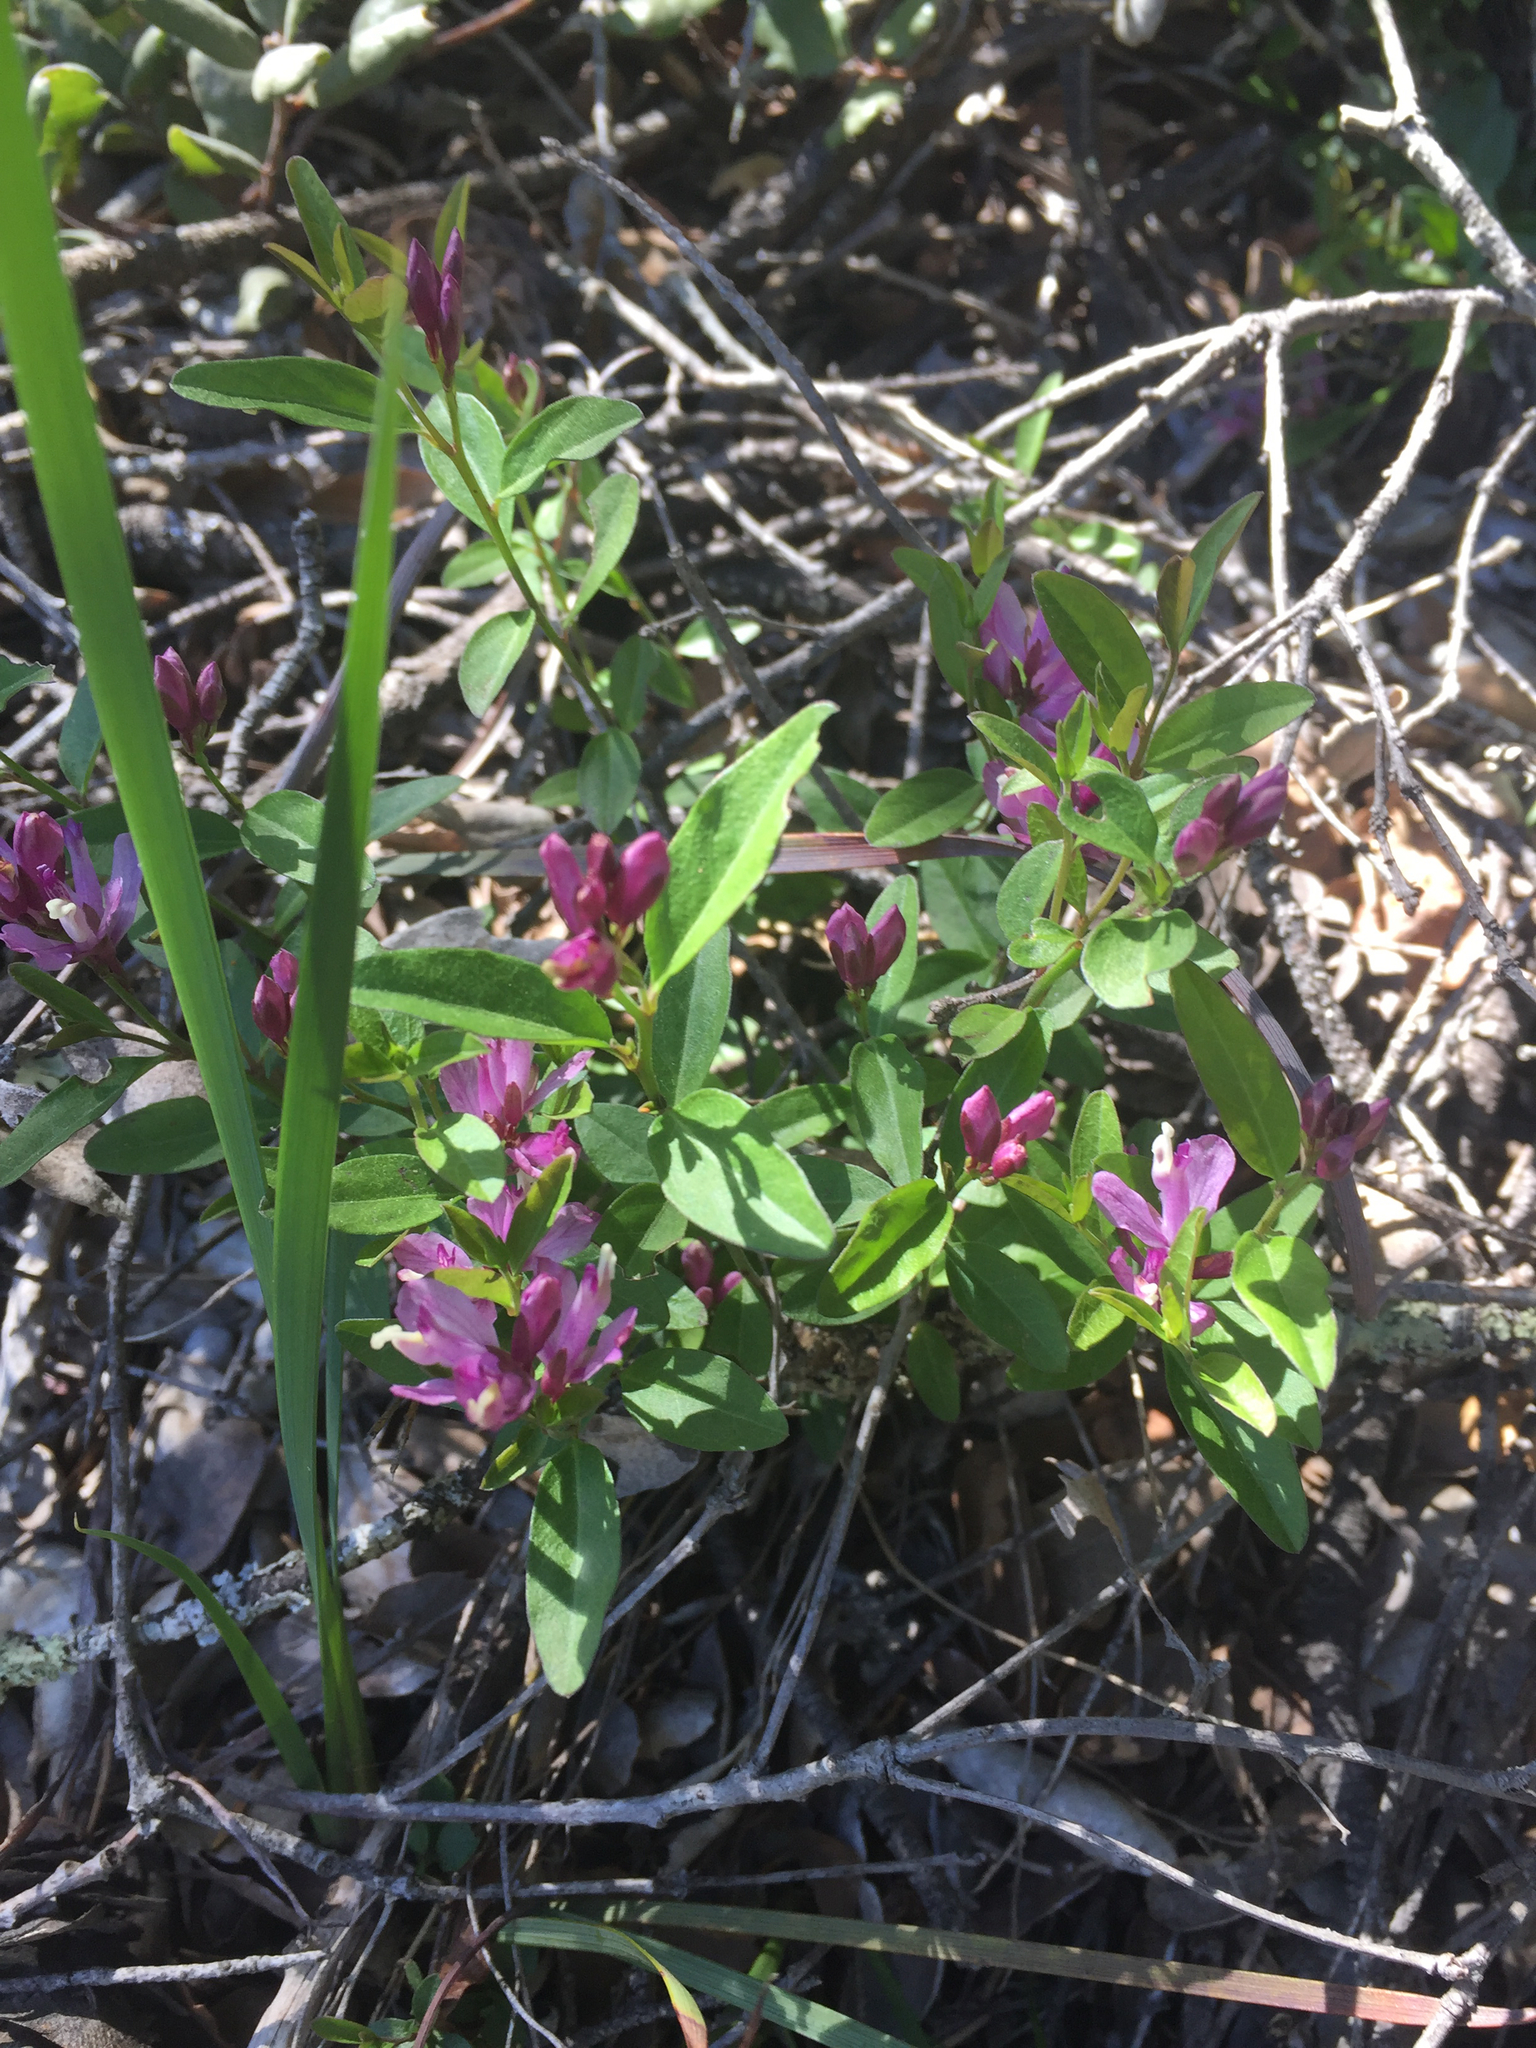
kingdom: Plantae
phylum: Tracheophyta
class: Magnoliopsida
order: Fabales
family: Polygalaceae
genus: Rhinotropis
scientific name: Rhinotropis californica
